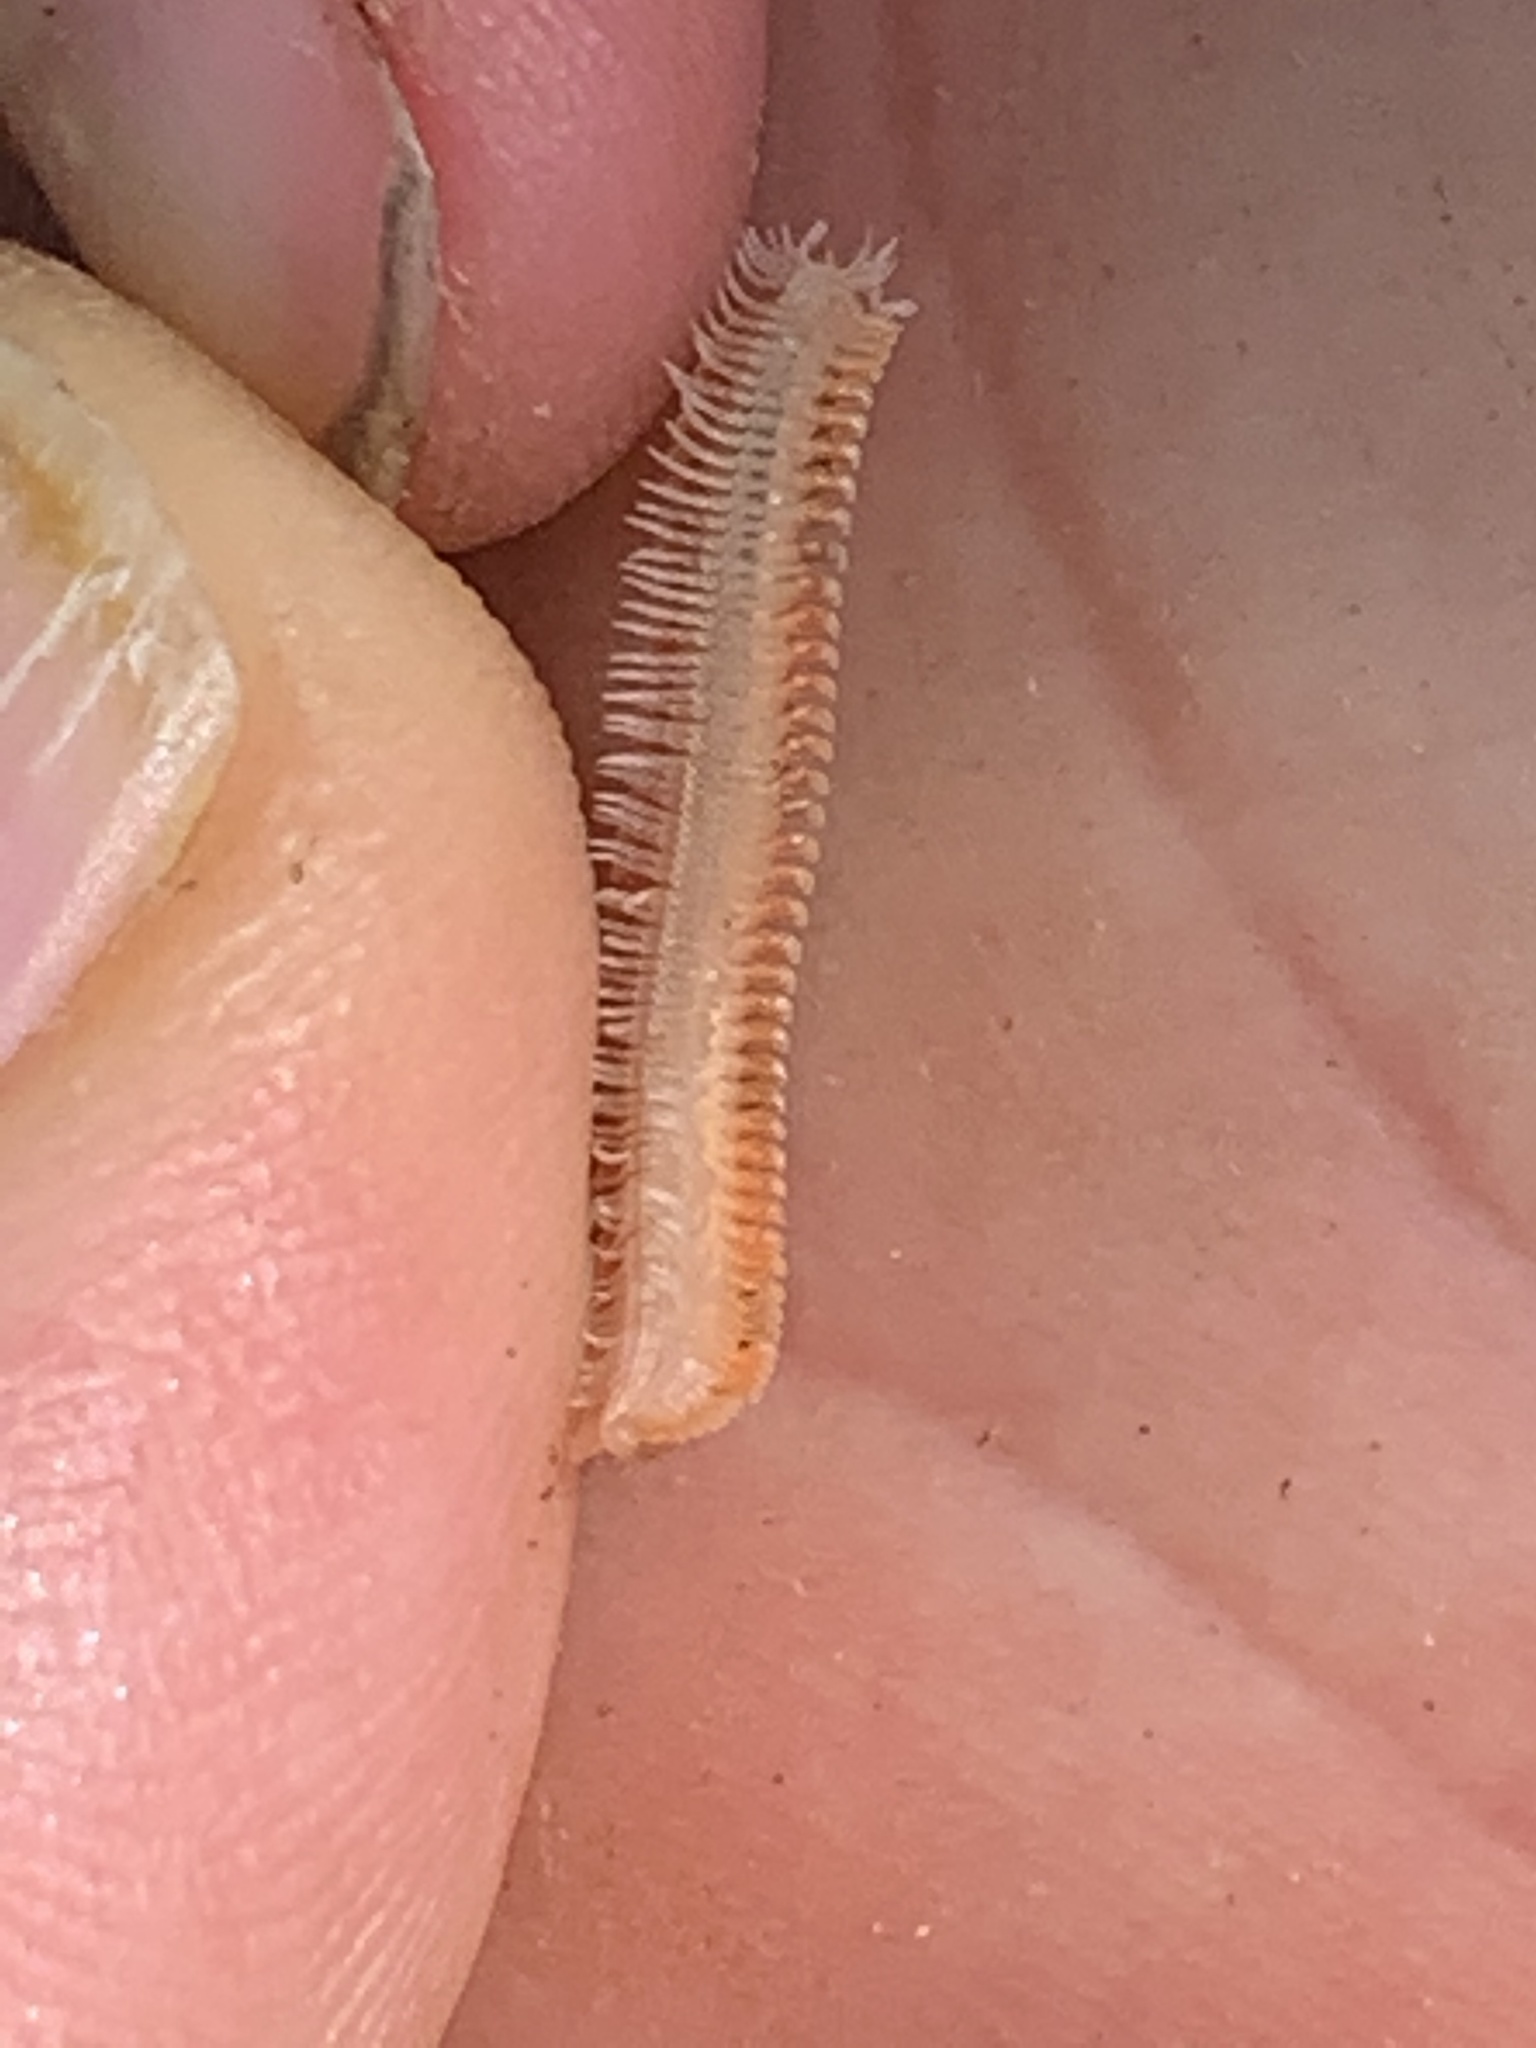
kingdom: Animalia
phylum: Arthropoda
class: Diplopoda
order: Platydesmida
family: Andrognathidae
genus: Brachycybe
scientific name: Brachycybe producta
